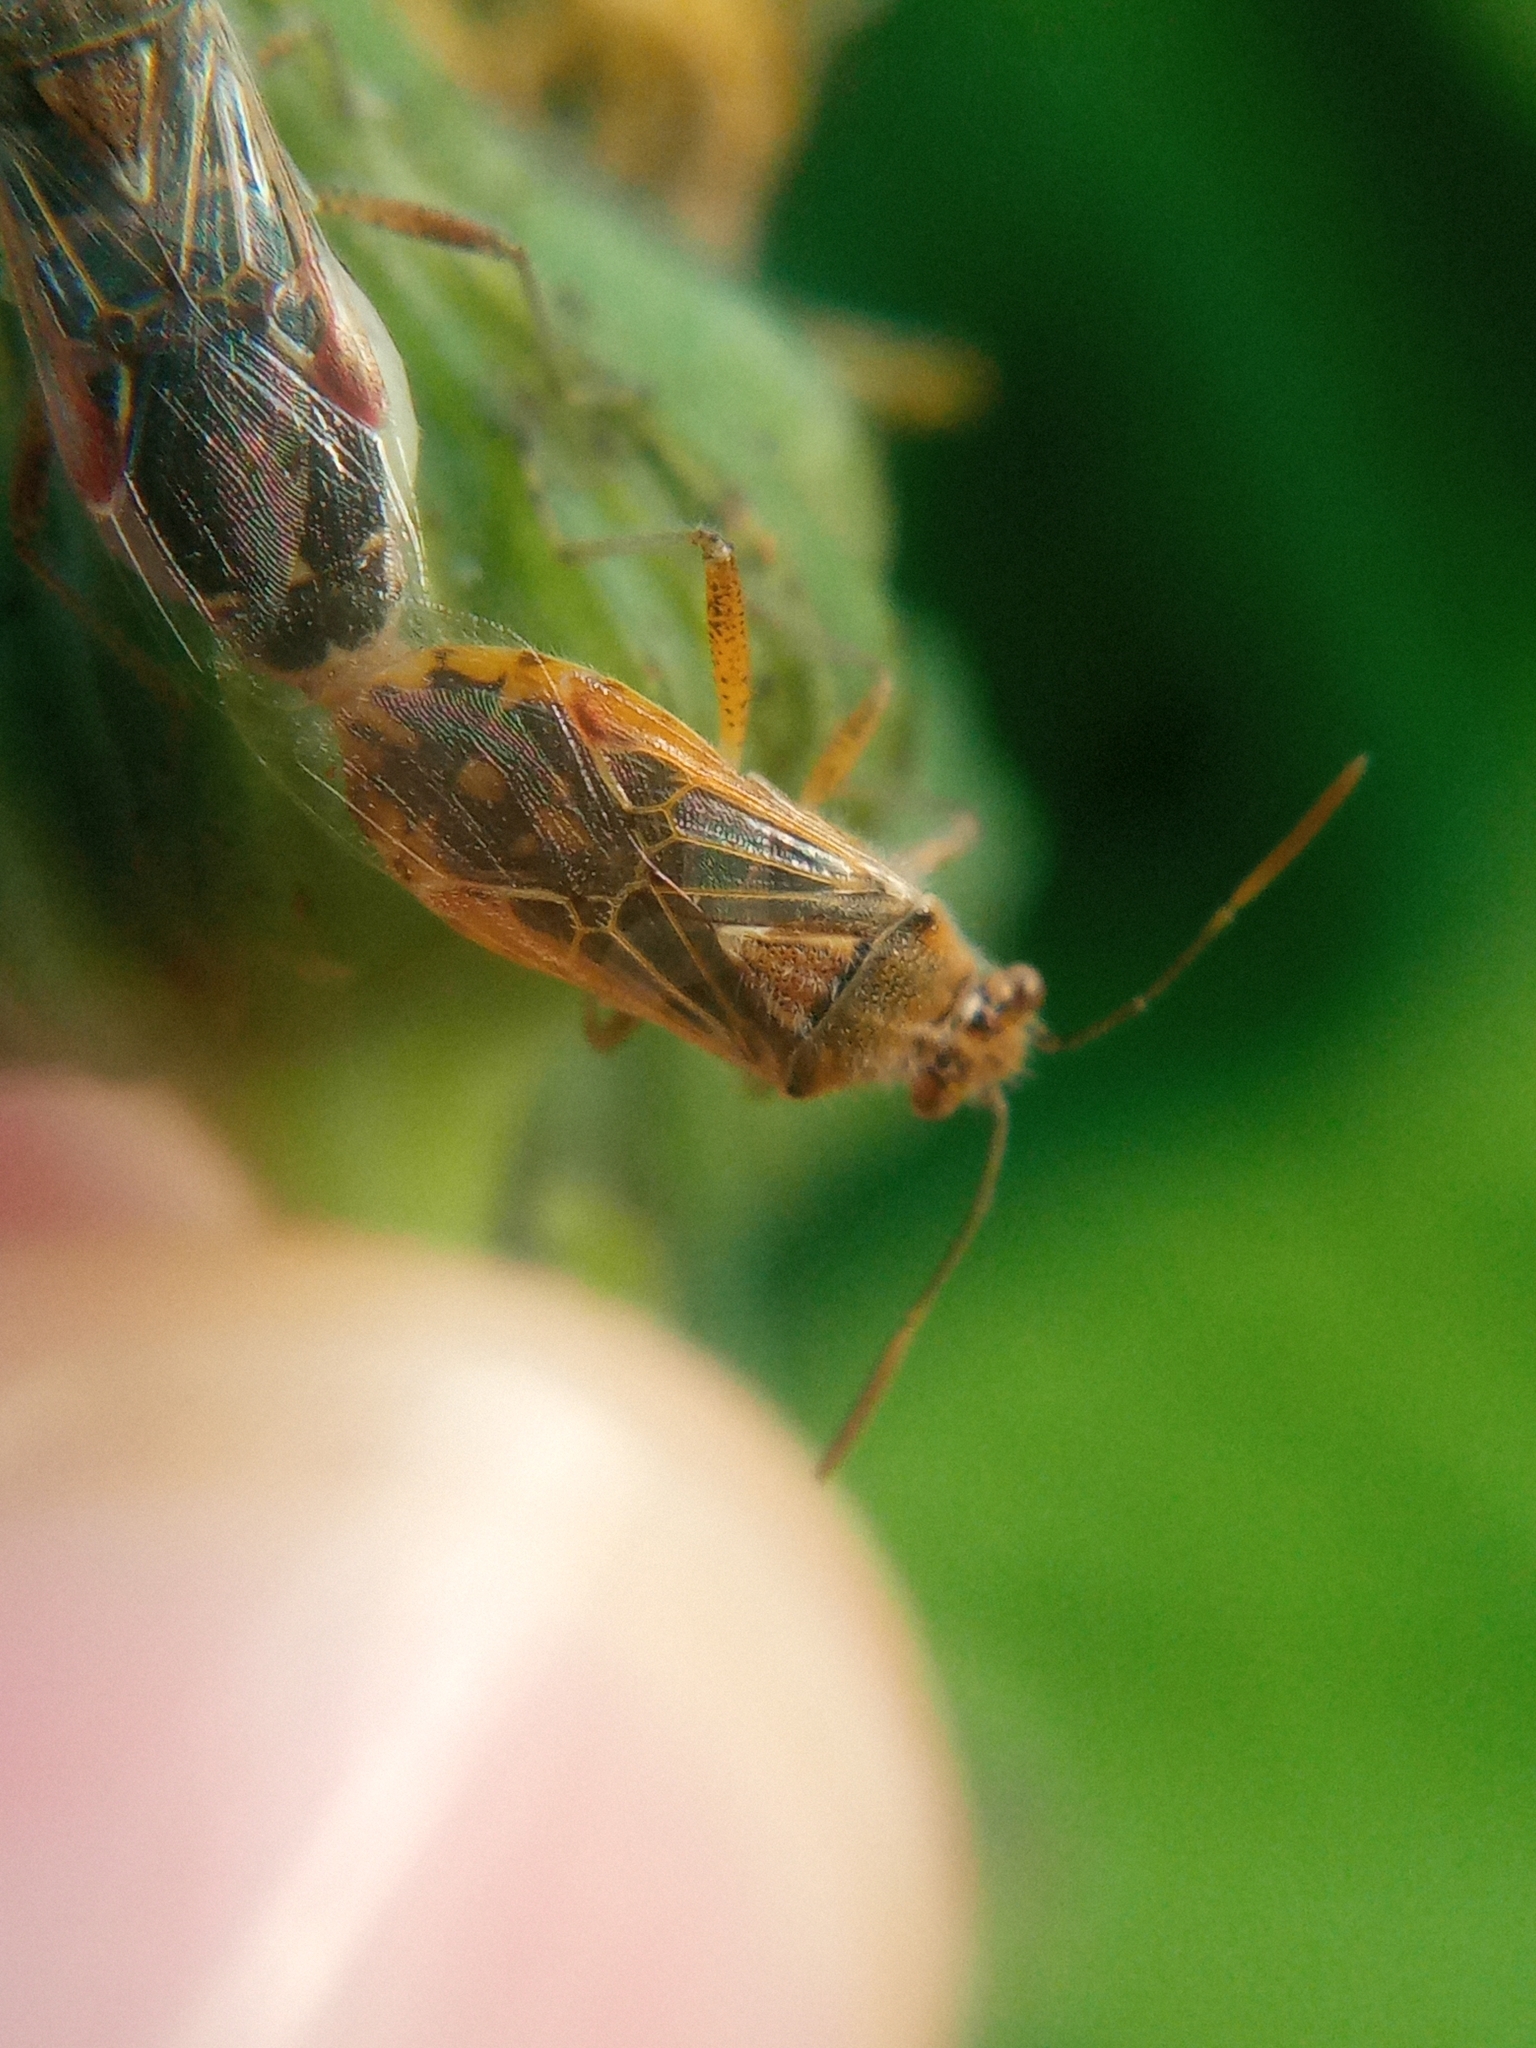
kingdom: Animalia
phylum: Arthropoda
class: Insecta
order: Hemiptera
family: Rhopalidae
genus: Liorhyssus
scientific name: Liorhyssus hyalinus
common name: Scentless plant bug
